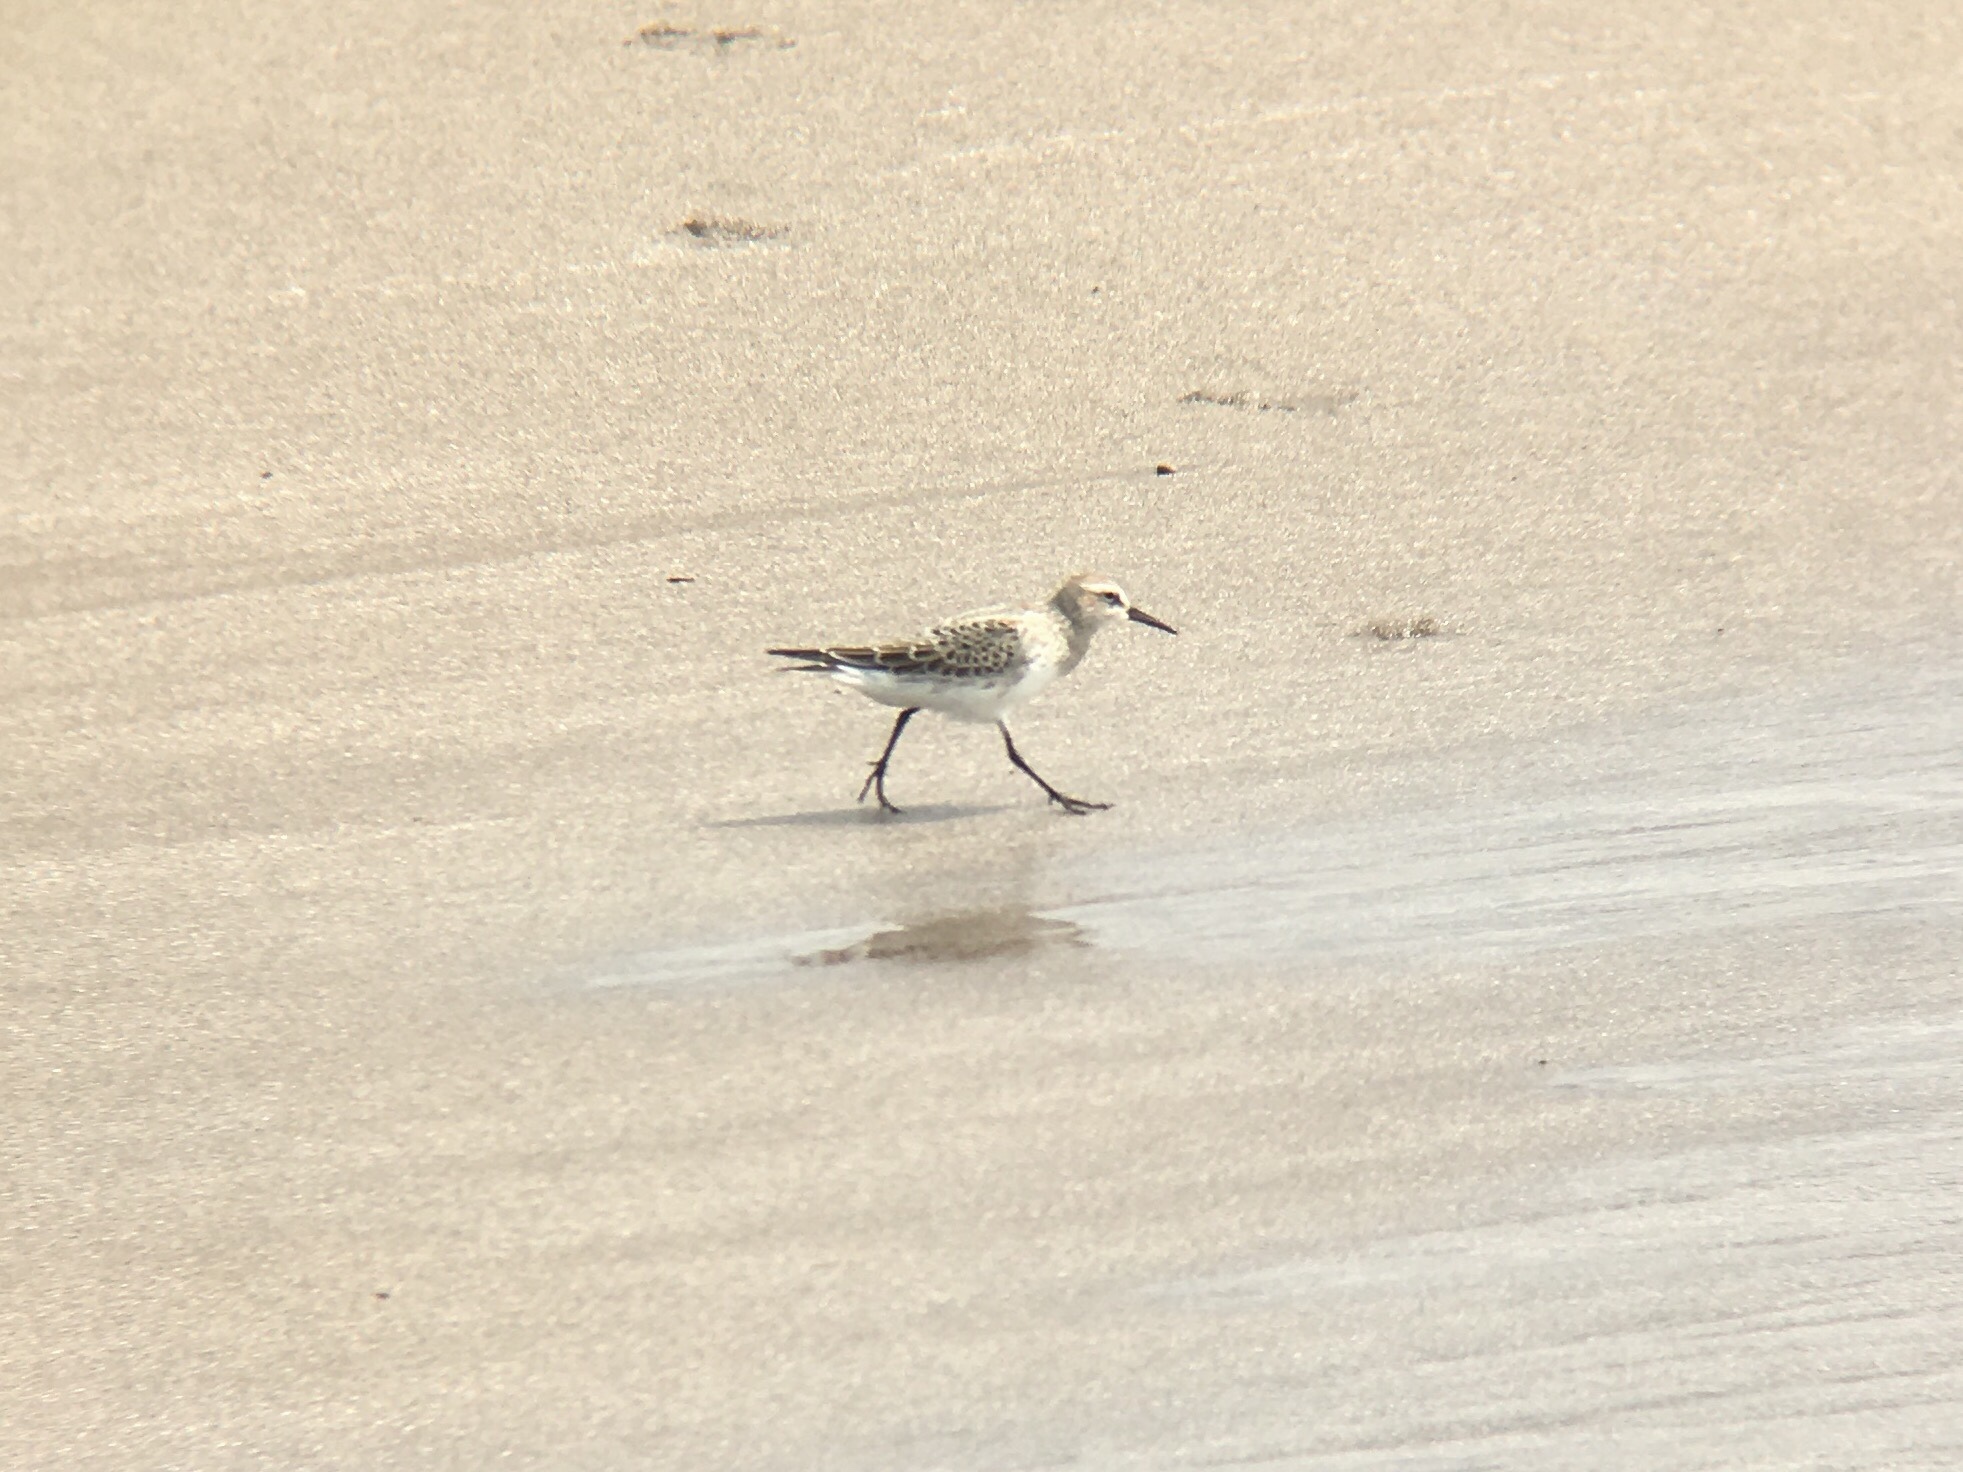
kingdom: Animalia
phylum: Chordata
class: Aves
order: Charadriiformes
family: Scolopacidae
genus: Calidris
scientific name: Calidris fuscicollis
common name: White-rumped sandpiper
